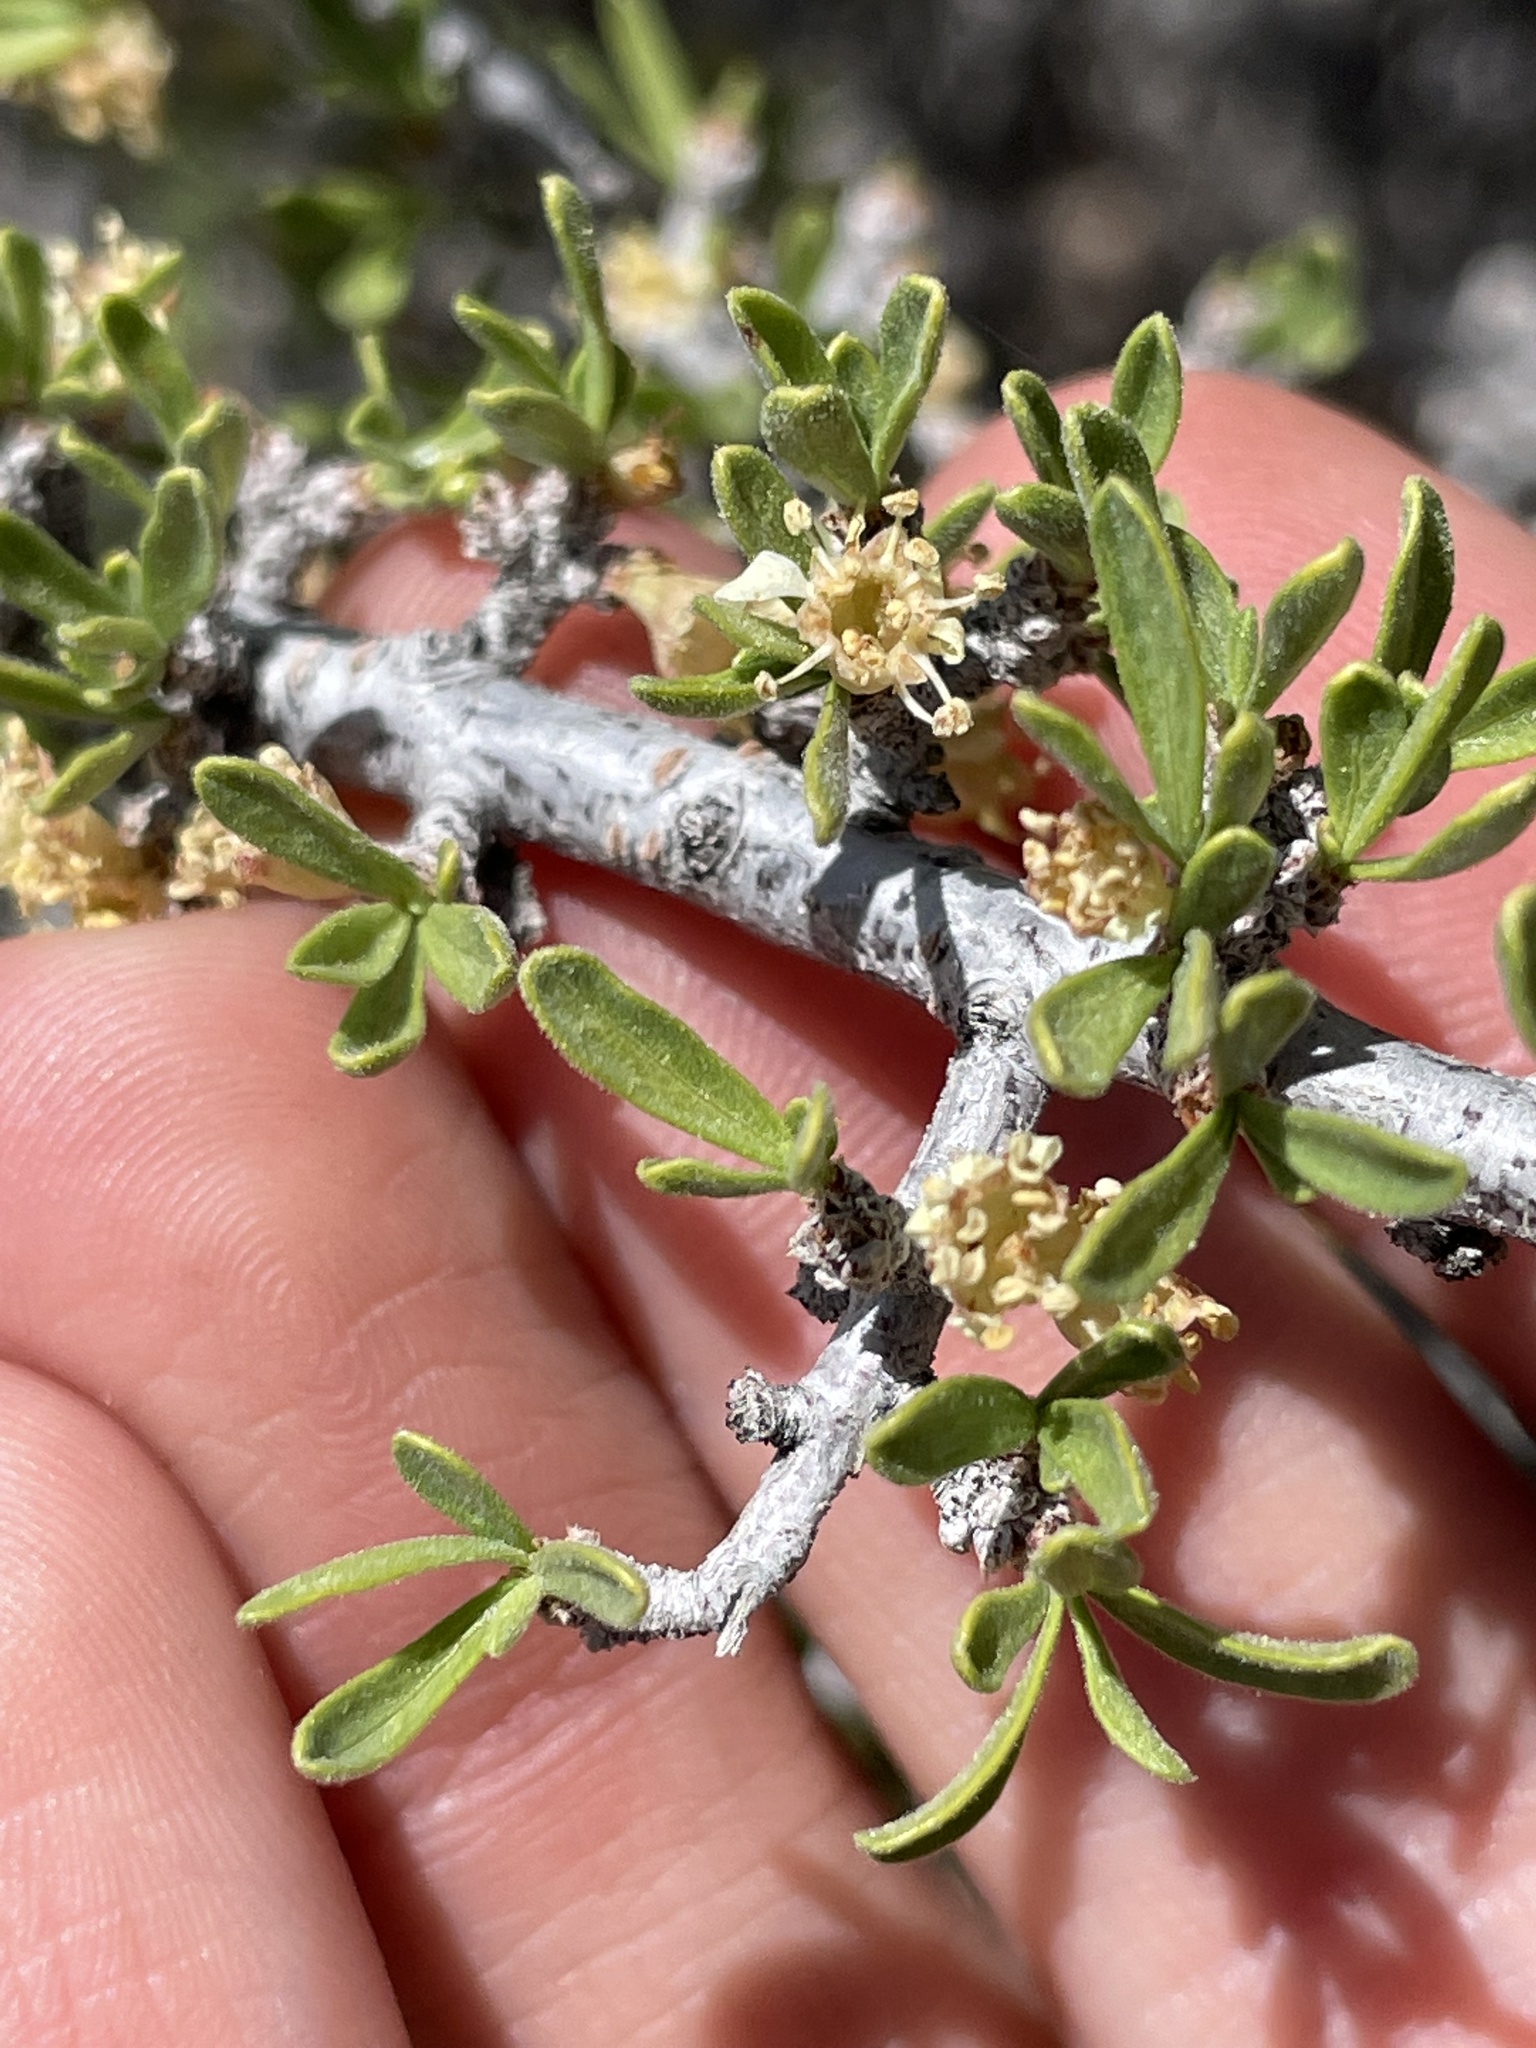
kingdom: Plantae
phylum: Tracheophyta
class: Magnoliopsida
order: Rosales
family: Rosaceae
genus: Prunus
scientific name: Prunus fasciculata
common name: Desert almond
